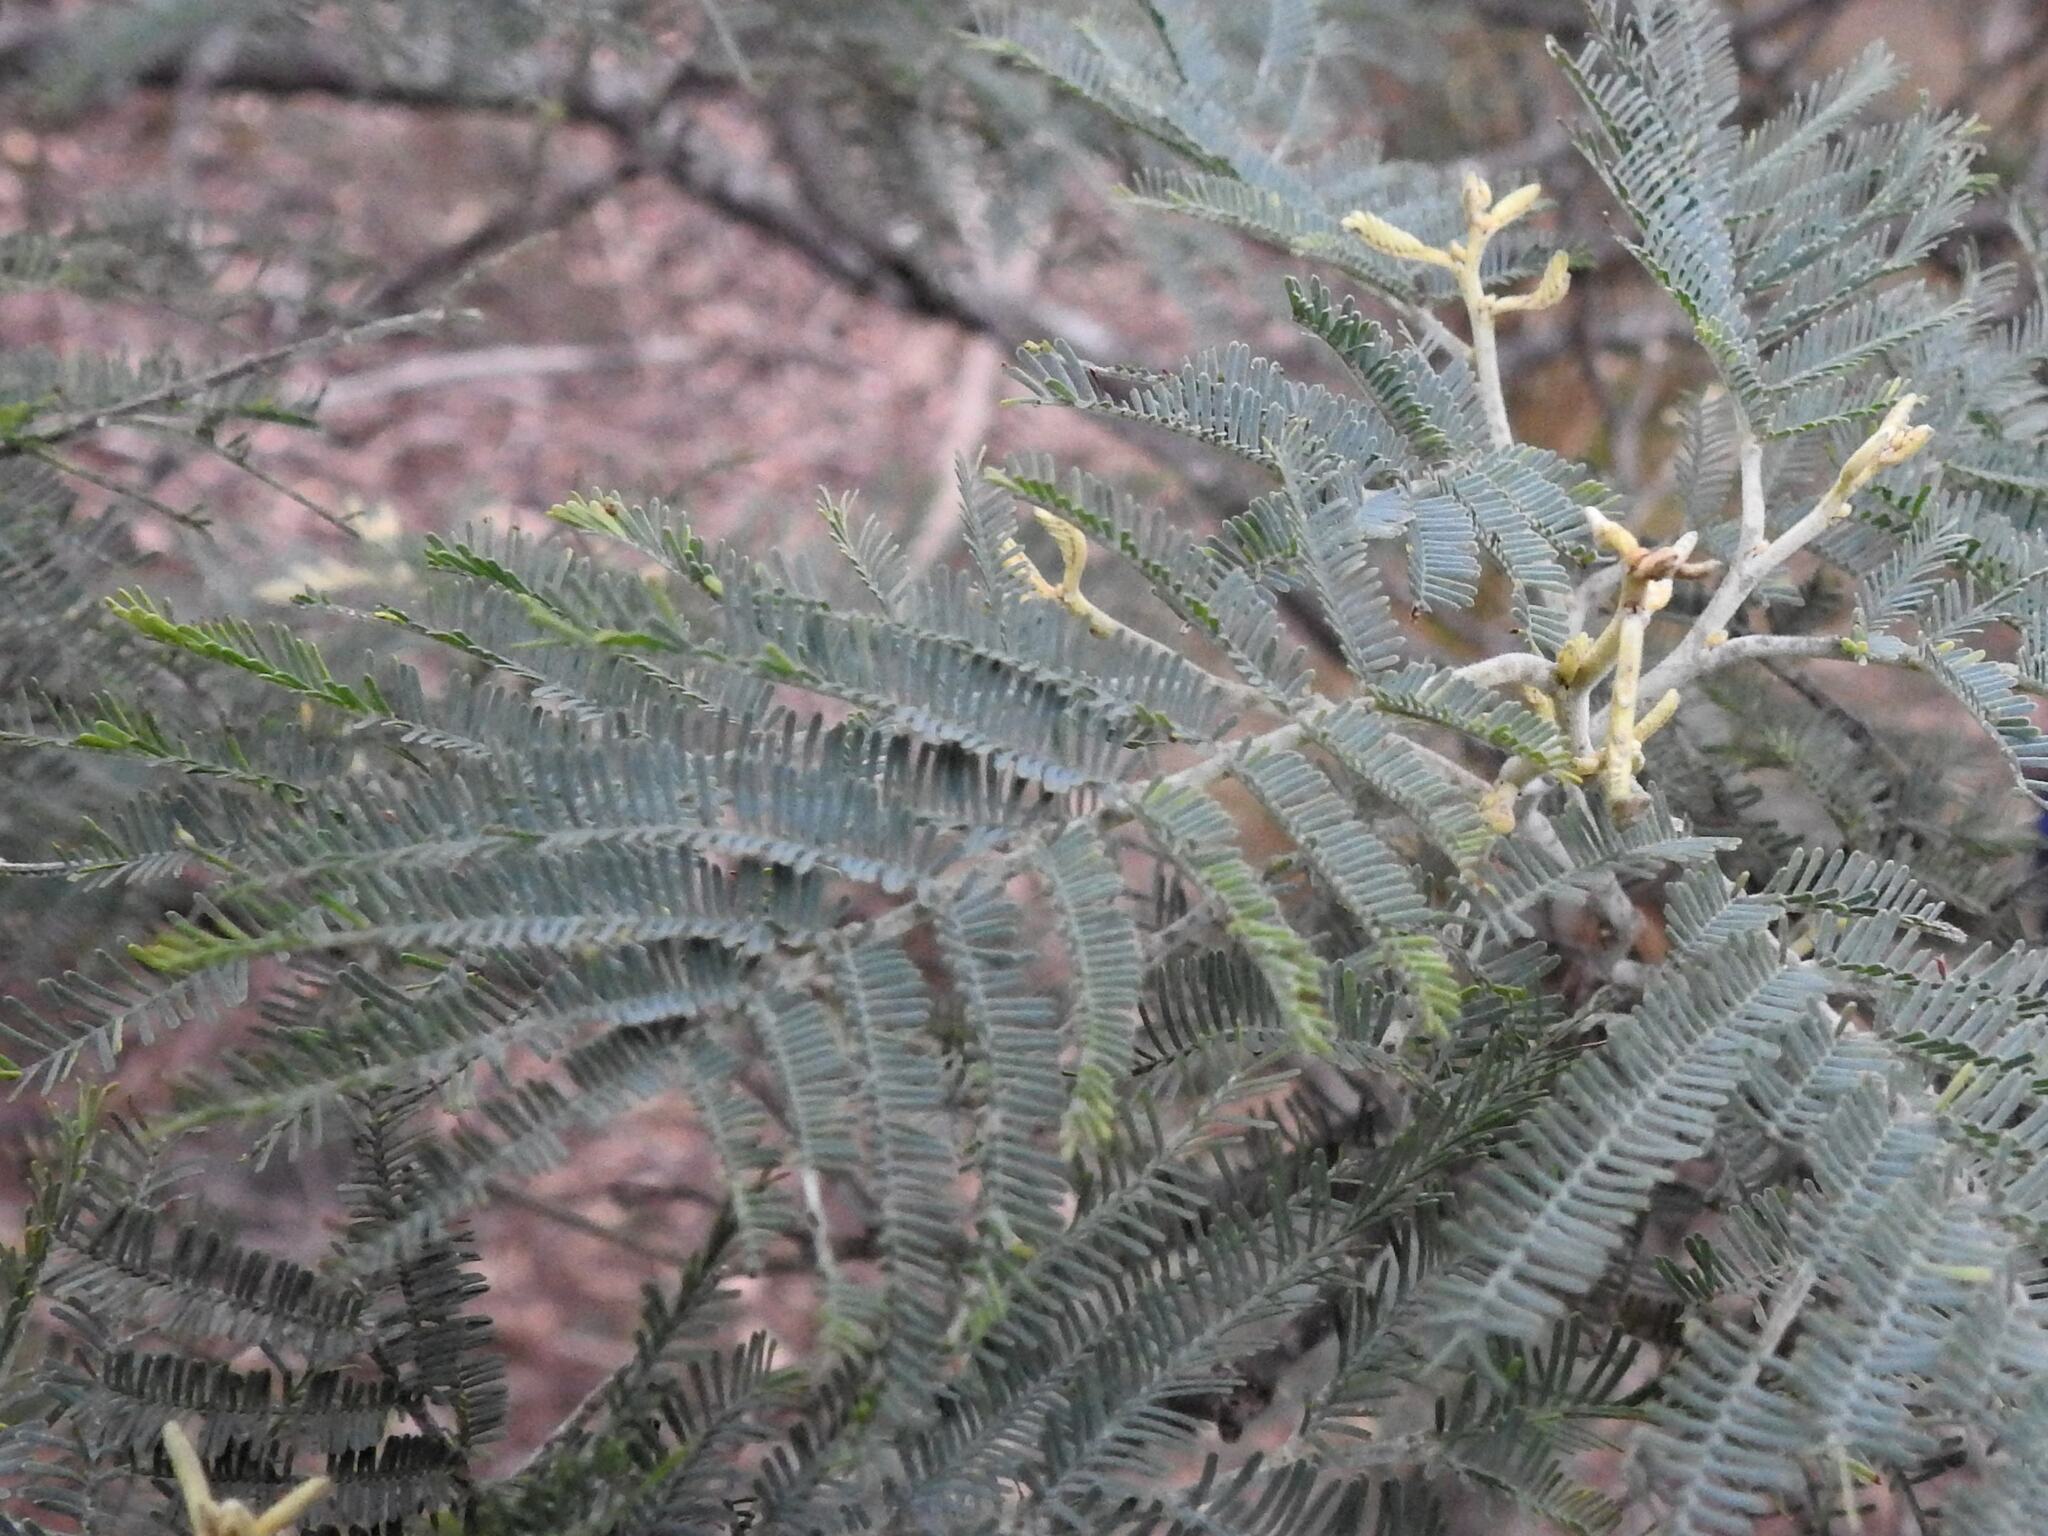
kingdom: Plantae
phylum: Tracheophyta
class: Magnoliopsida
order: Fabales
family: Fabaceae
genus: Acacia
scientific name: Acacia dealbata
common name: Silver wattle
